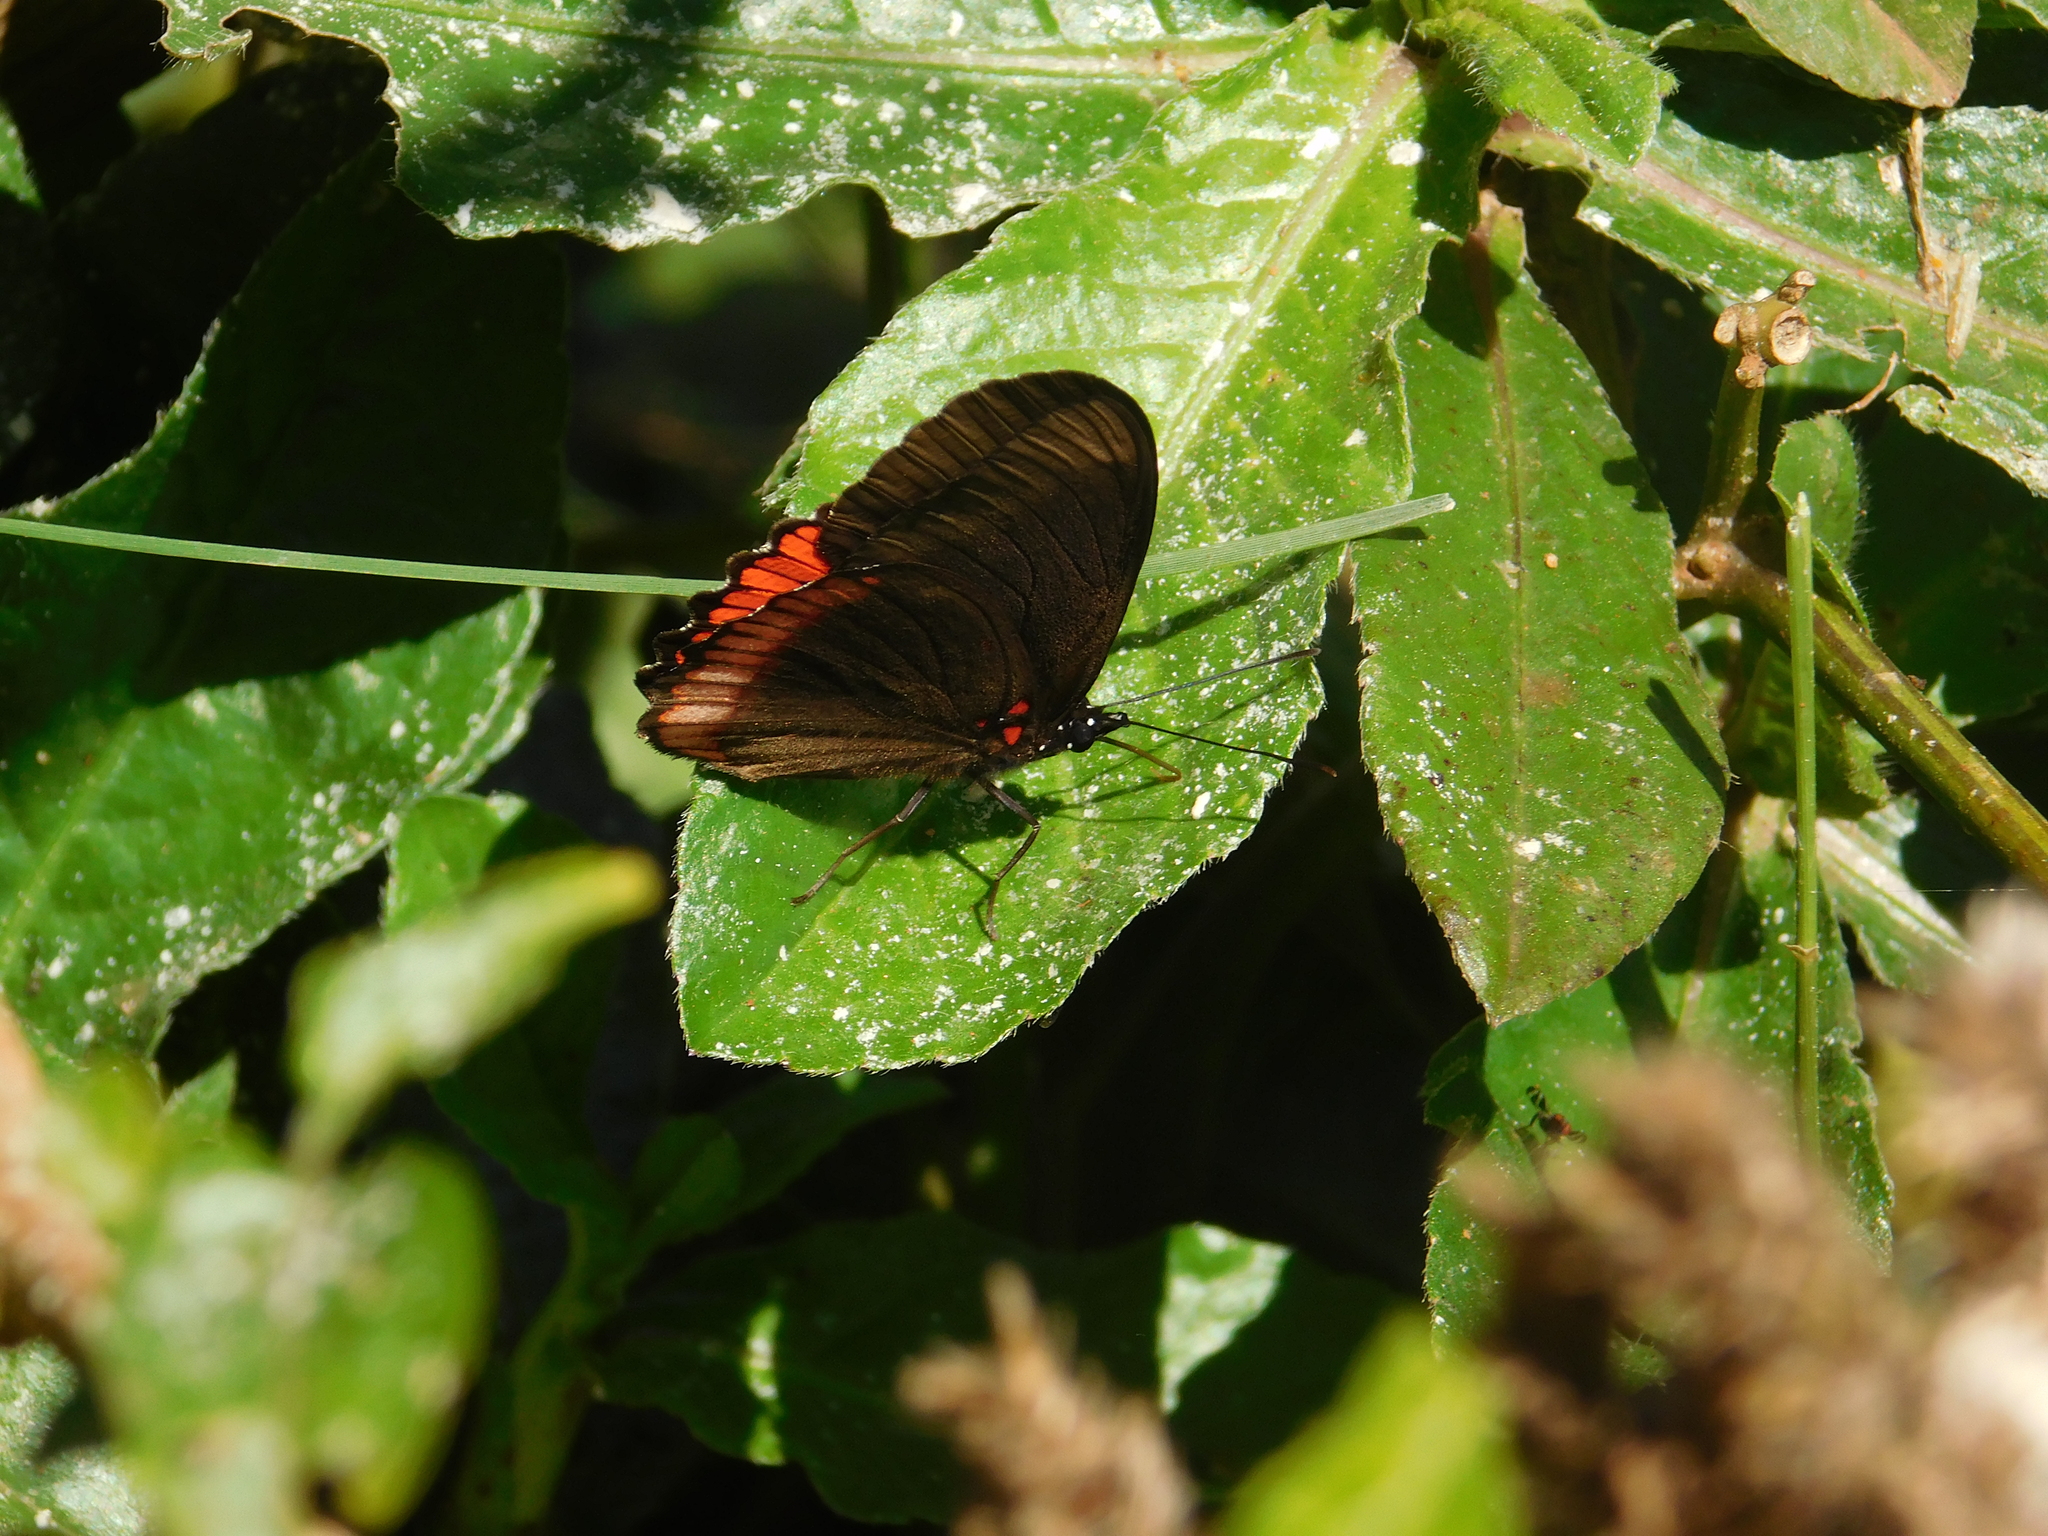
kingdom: Animalia
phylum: Arthropoda
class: Insecta
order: Lepidoptera
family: Sesiidae
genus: Sesia
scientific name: Sesia Biblis hyperia
